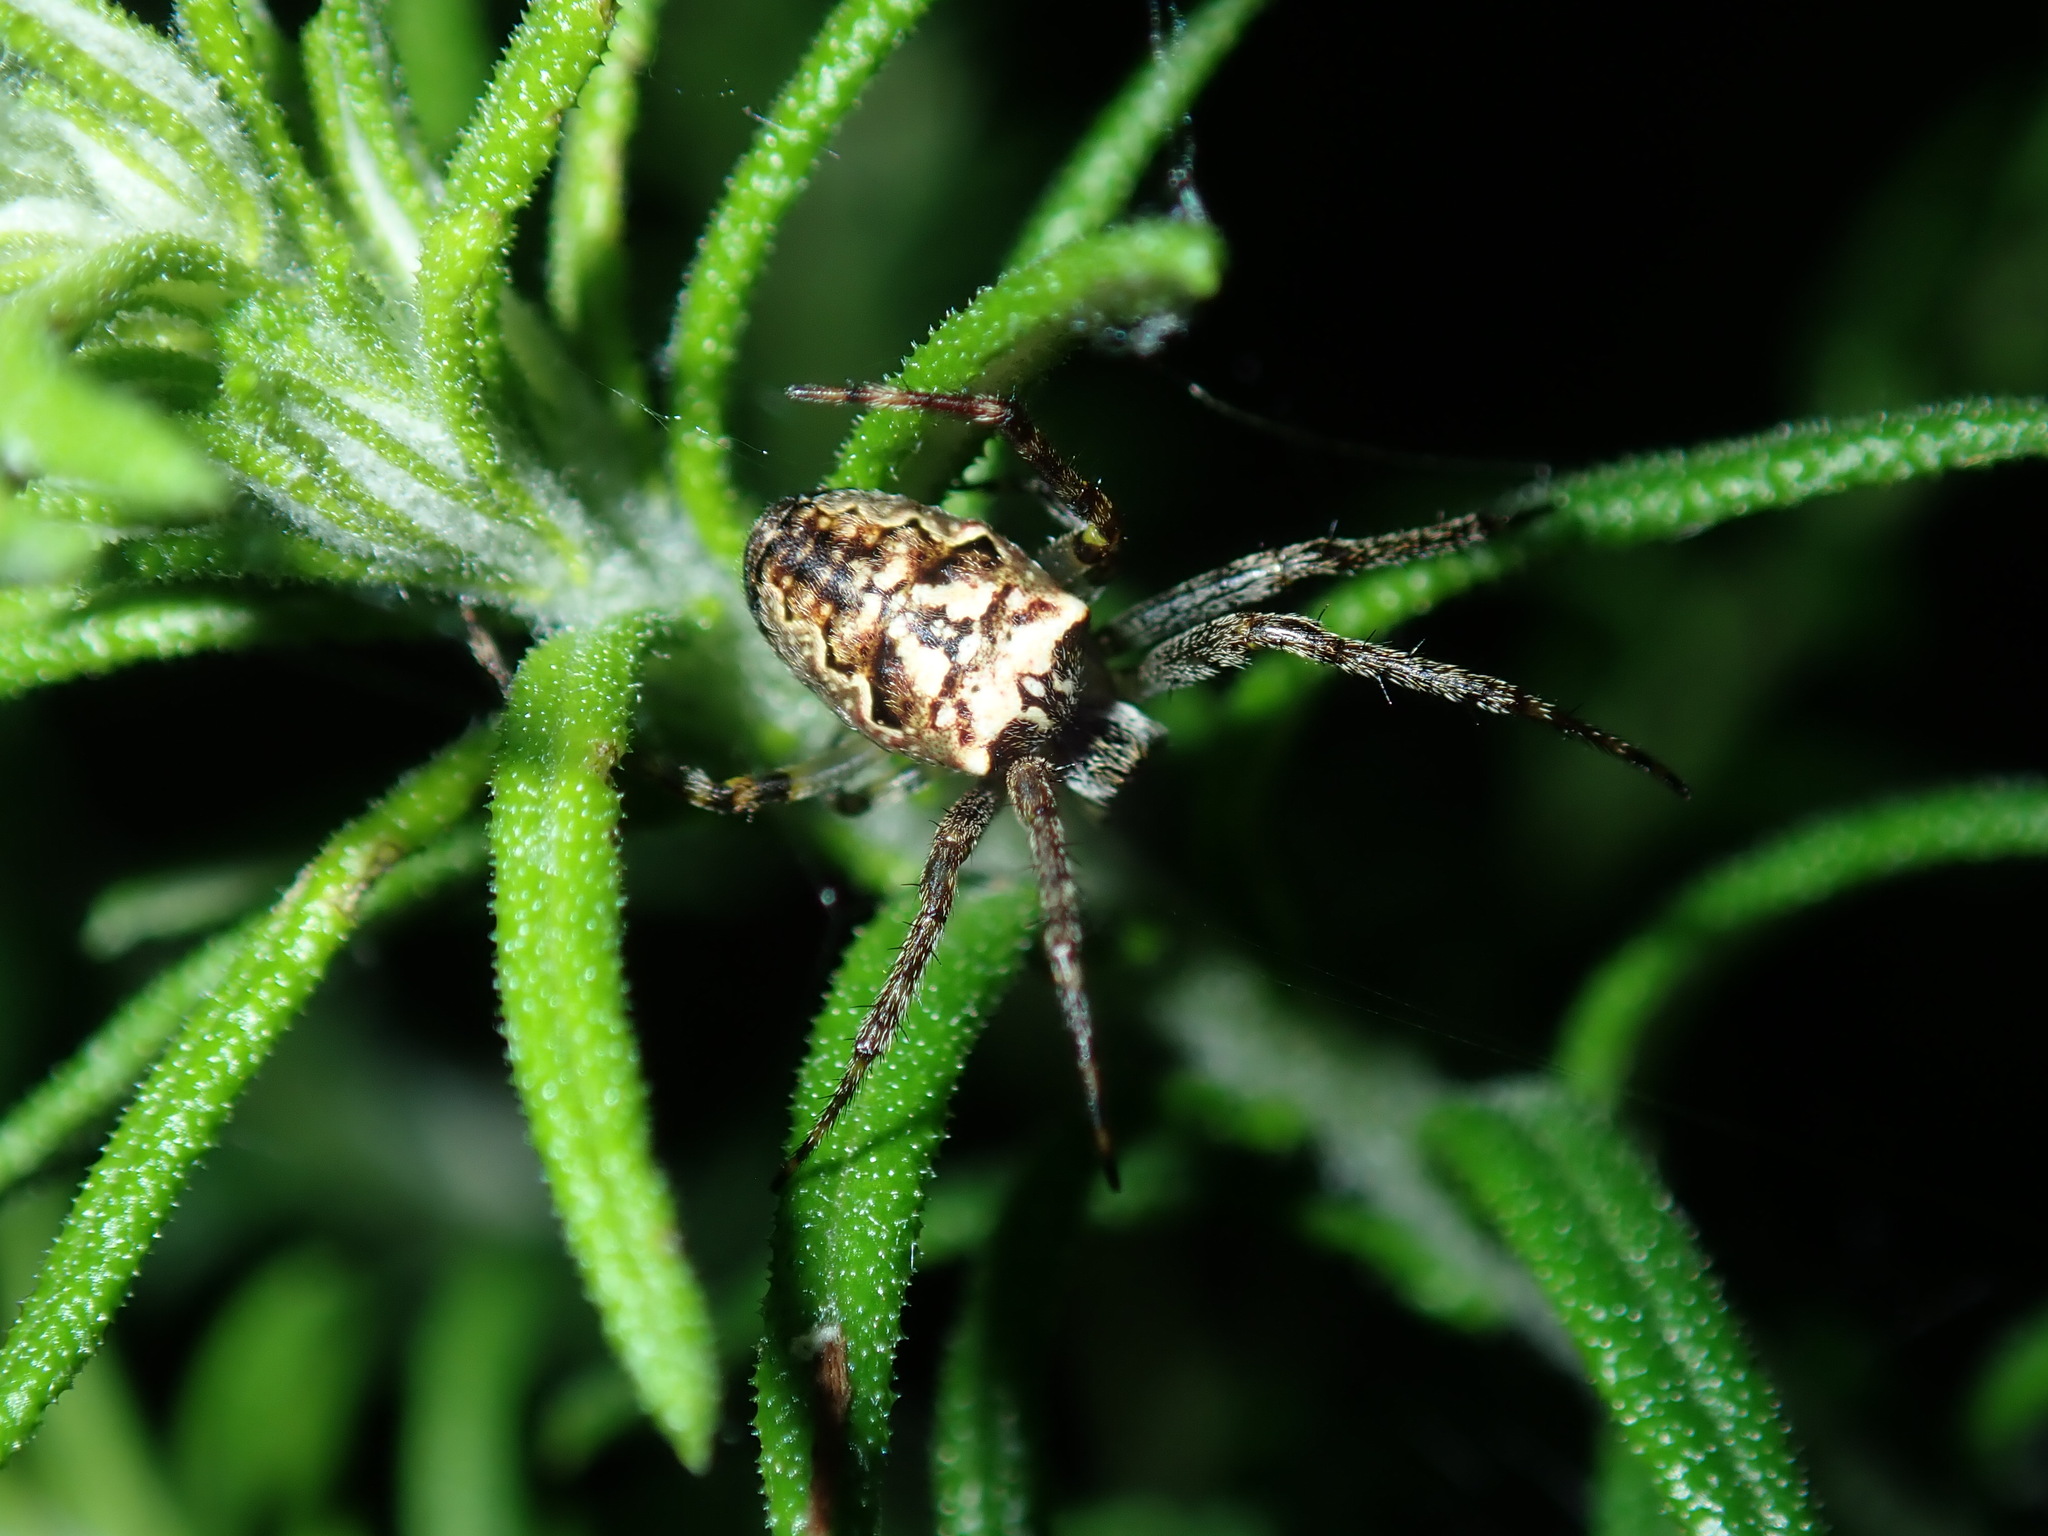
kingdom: Animalia
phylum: Arthropoda
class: Arachnida
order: Araneae
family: Araneidae
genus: Plebs
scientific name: Plebs eburnus
